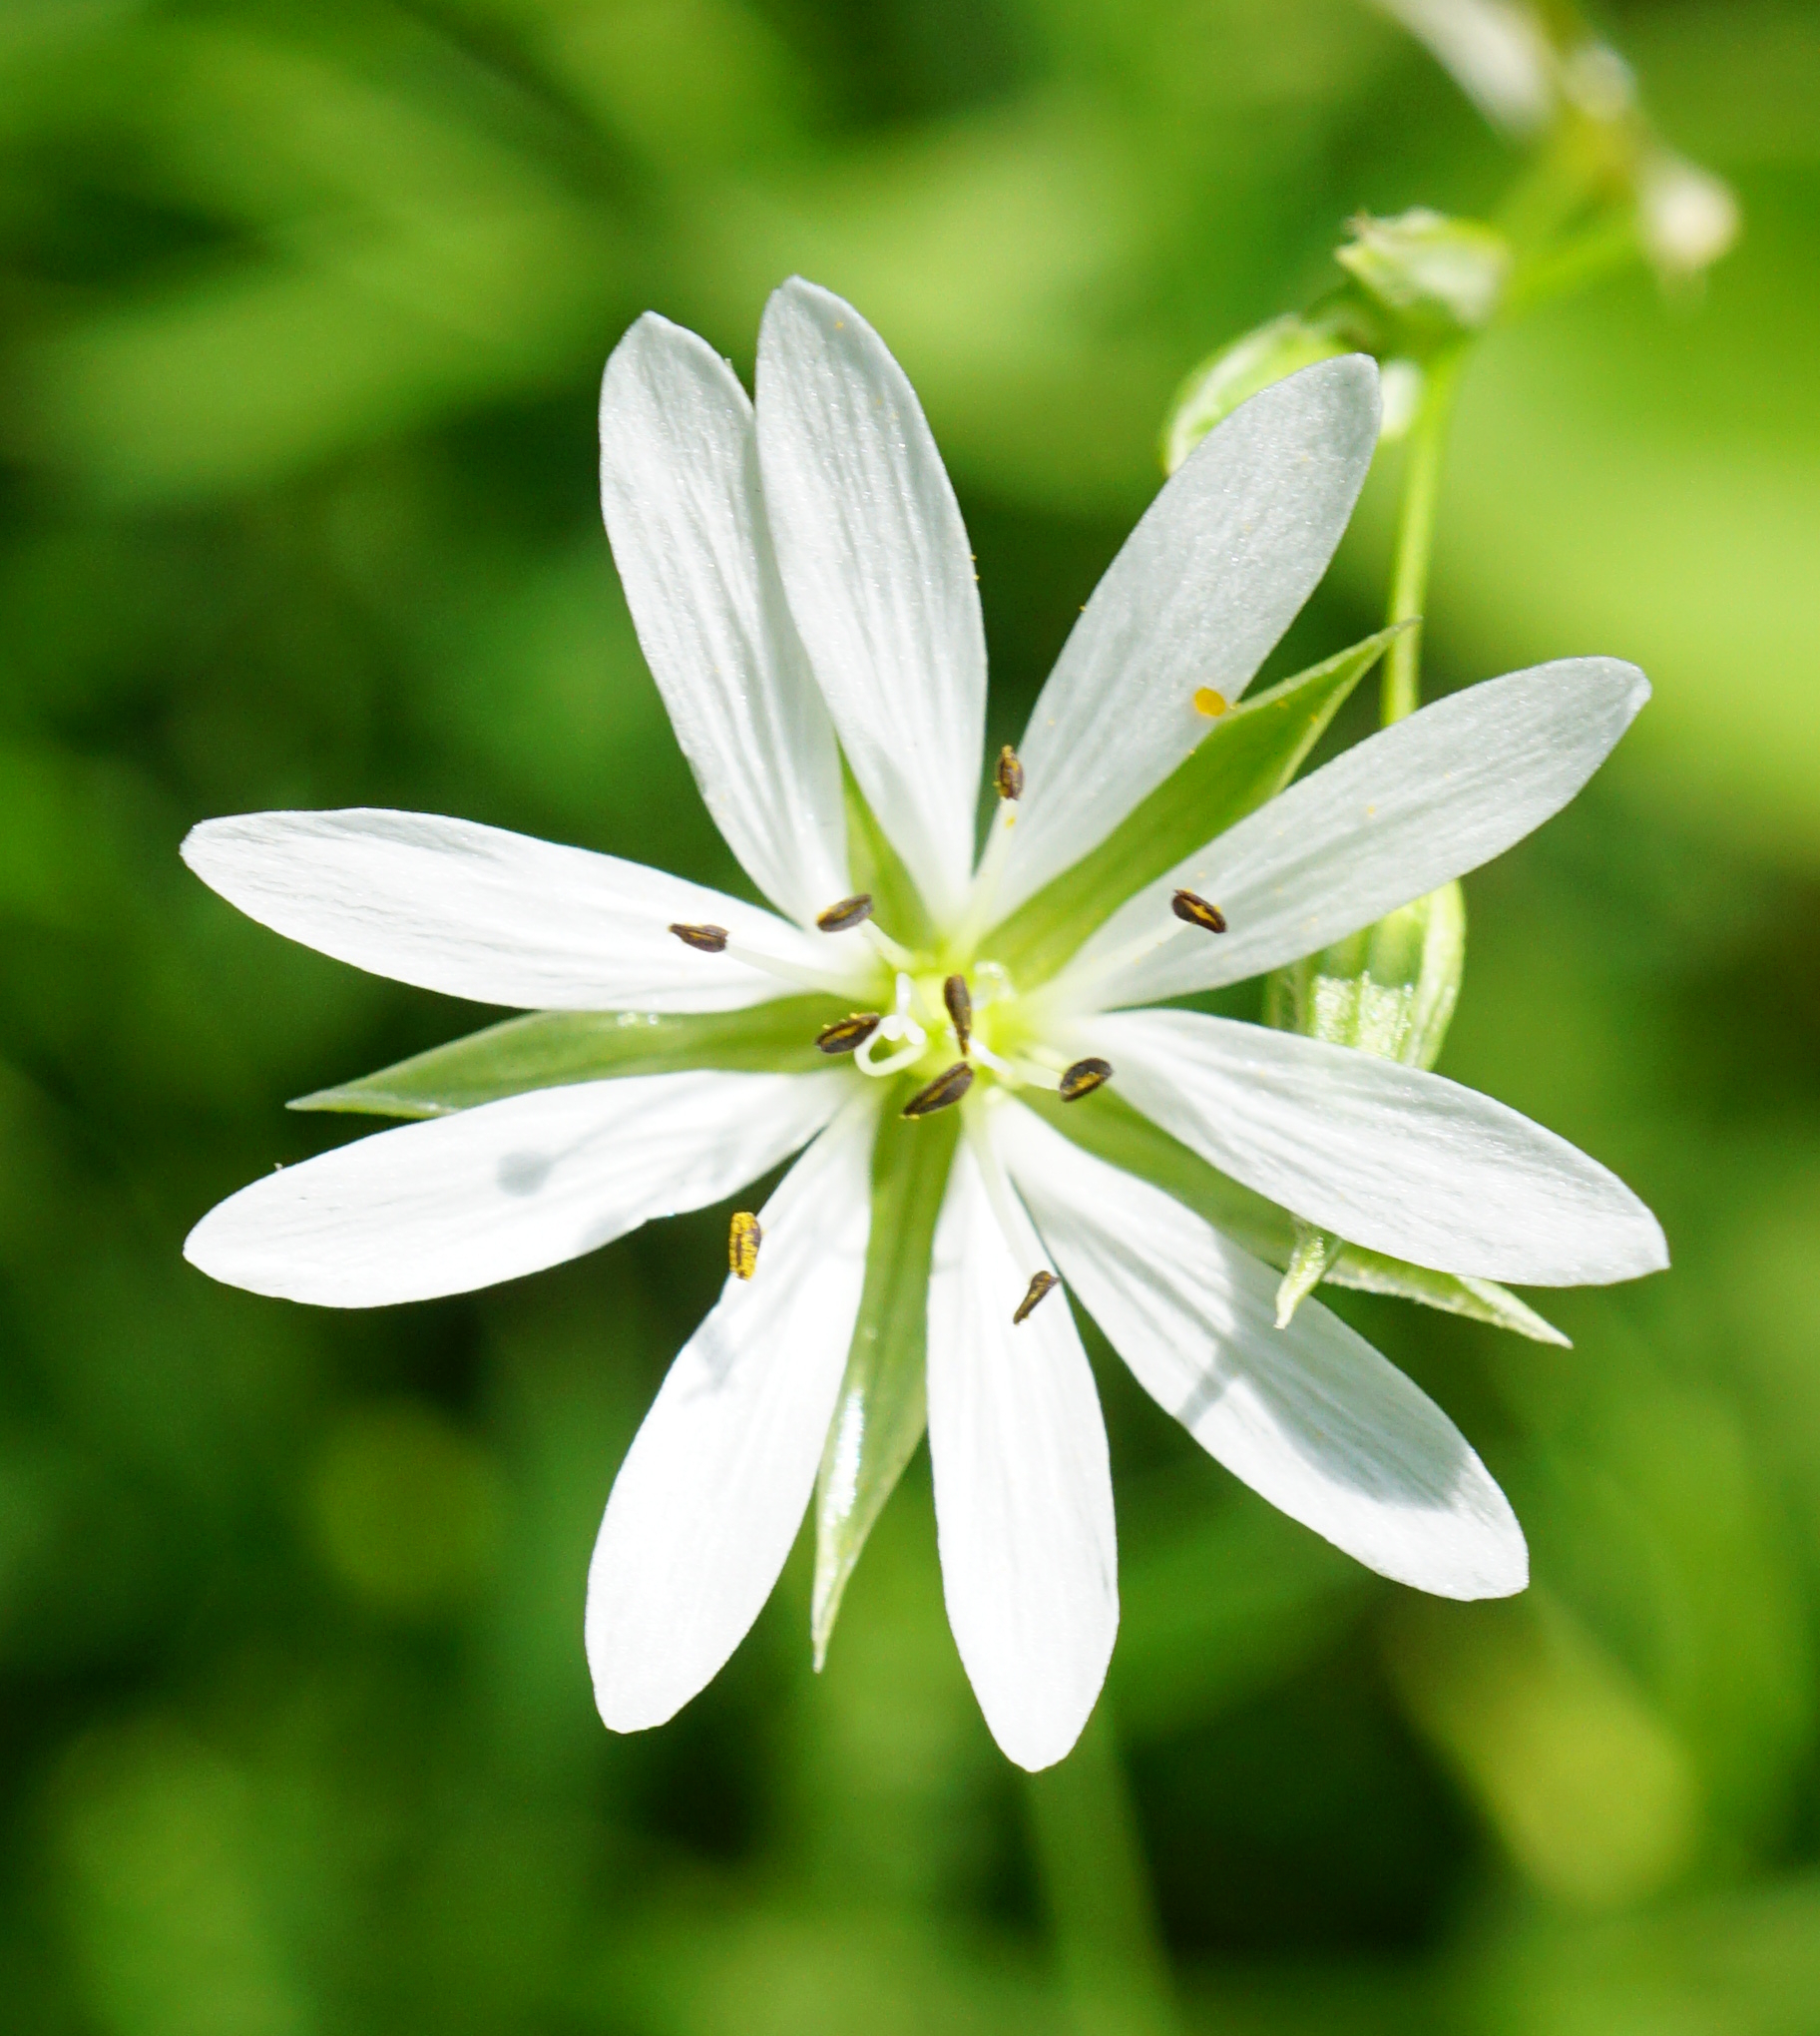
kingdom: Plantae
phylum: Tracheophyta
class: Magnoliopsida
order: Caryophyllales
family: Caryophyllaceae
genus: Stellaria
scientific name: Stellaria graminea
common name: Grass-like starwort
